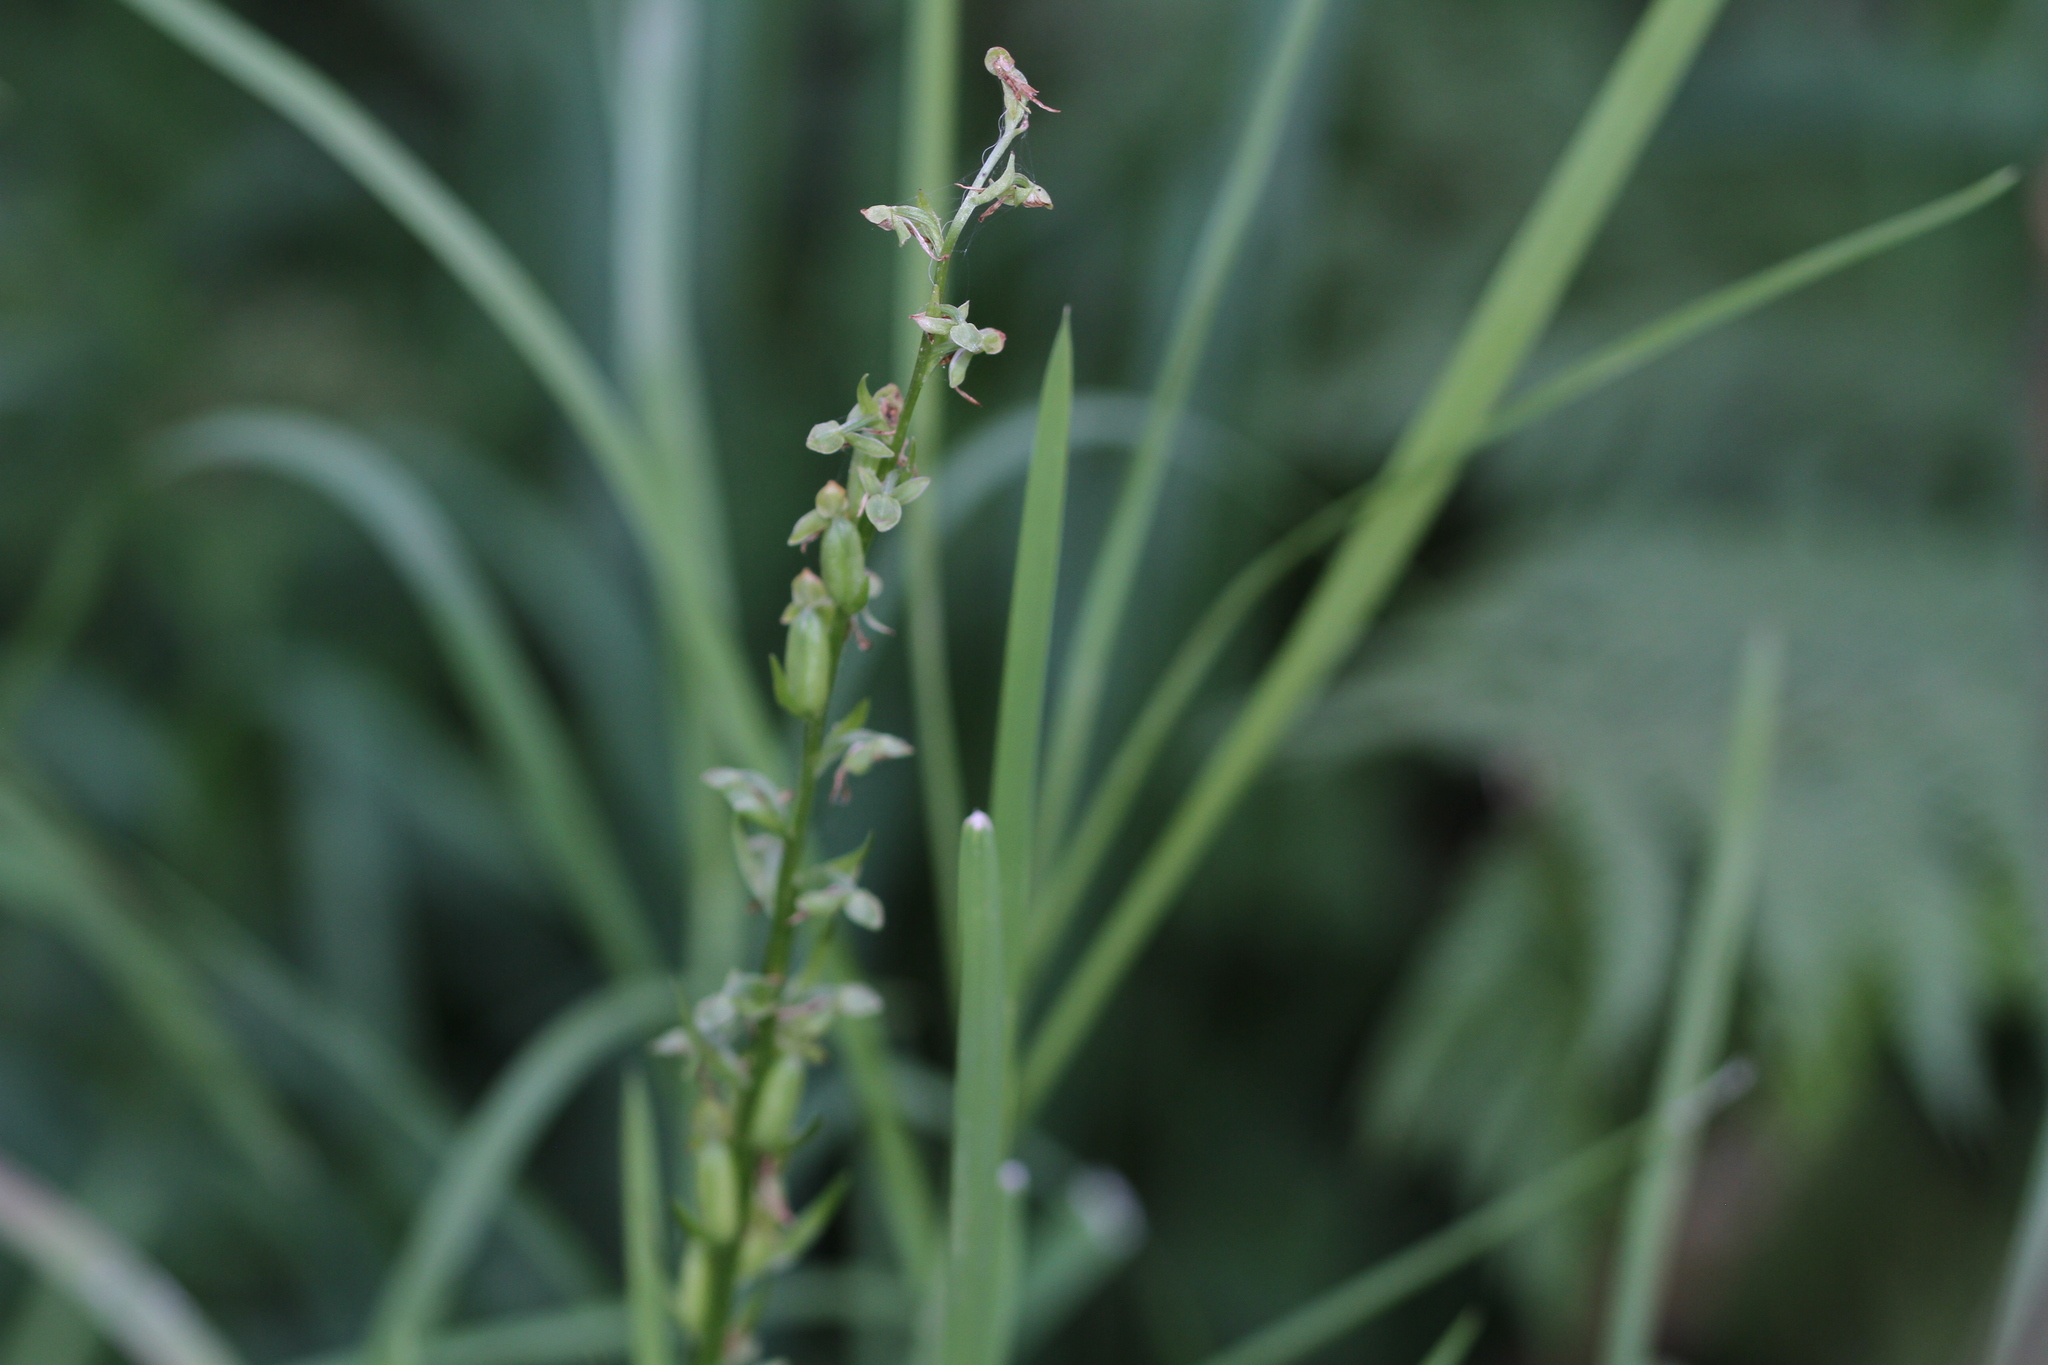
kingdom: Plantae
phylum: Tracheophyta
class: Liliopsida
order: Asparagales
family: Orchidaceae
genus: Platanthera
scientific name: Platanthera sparsiflora
